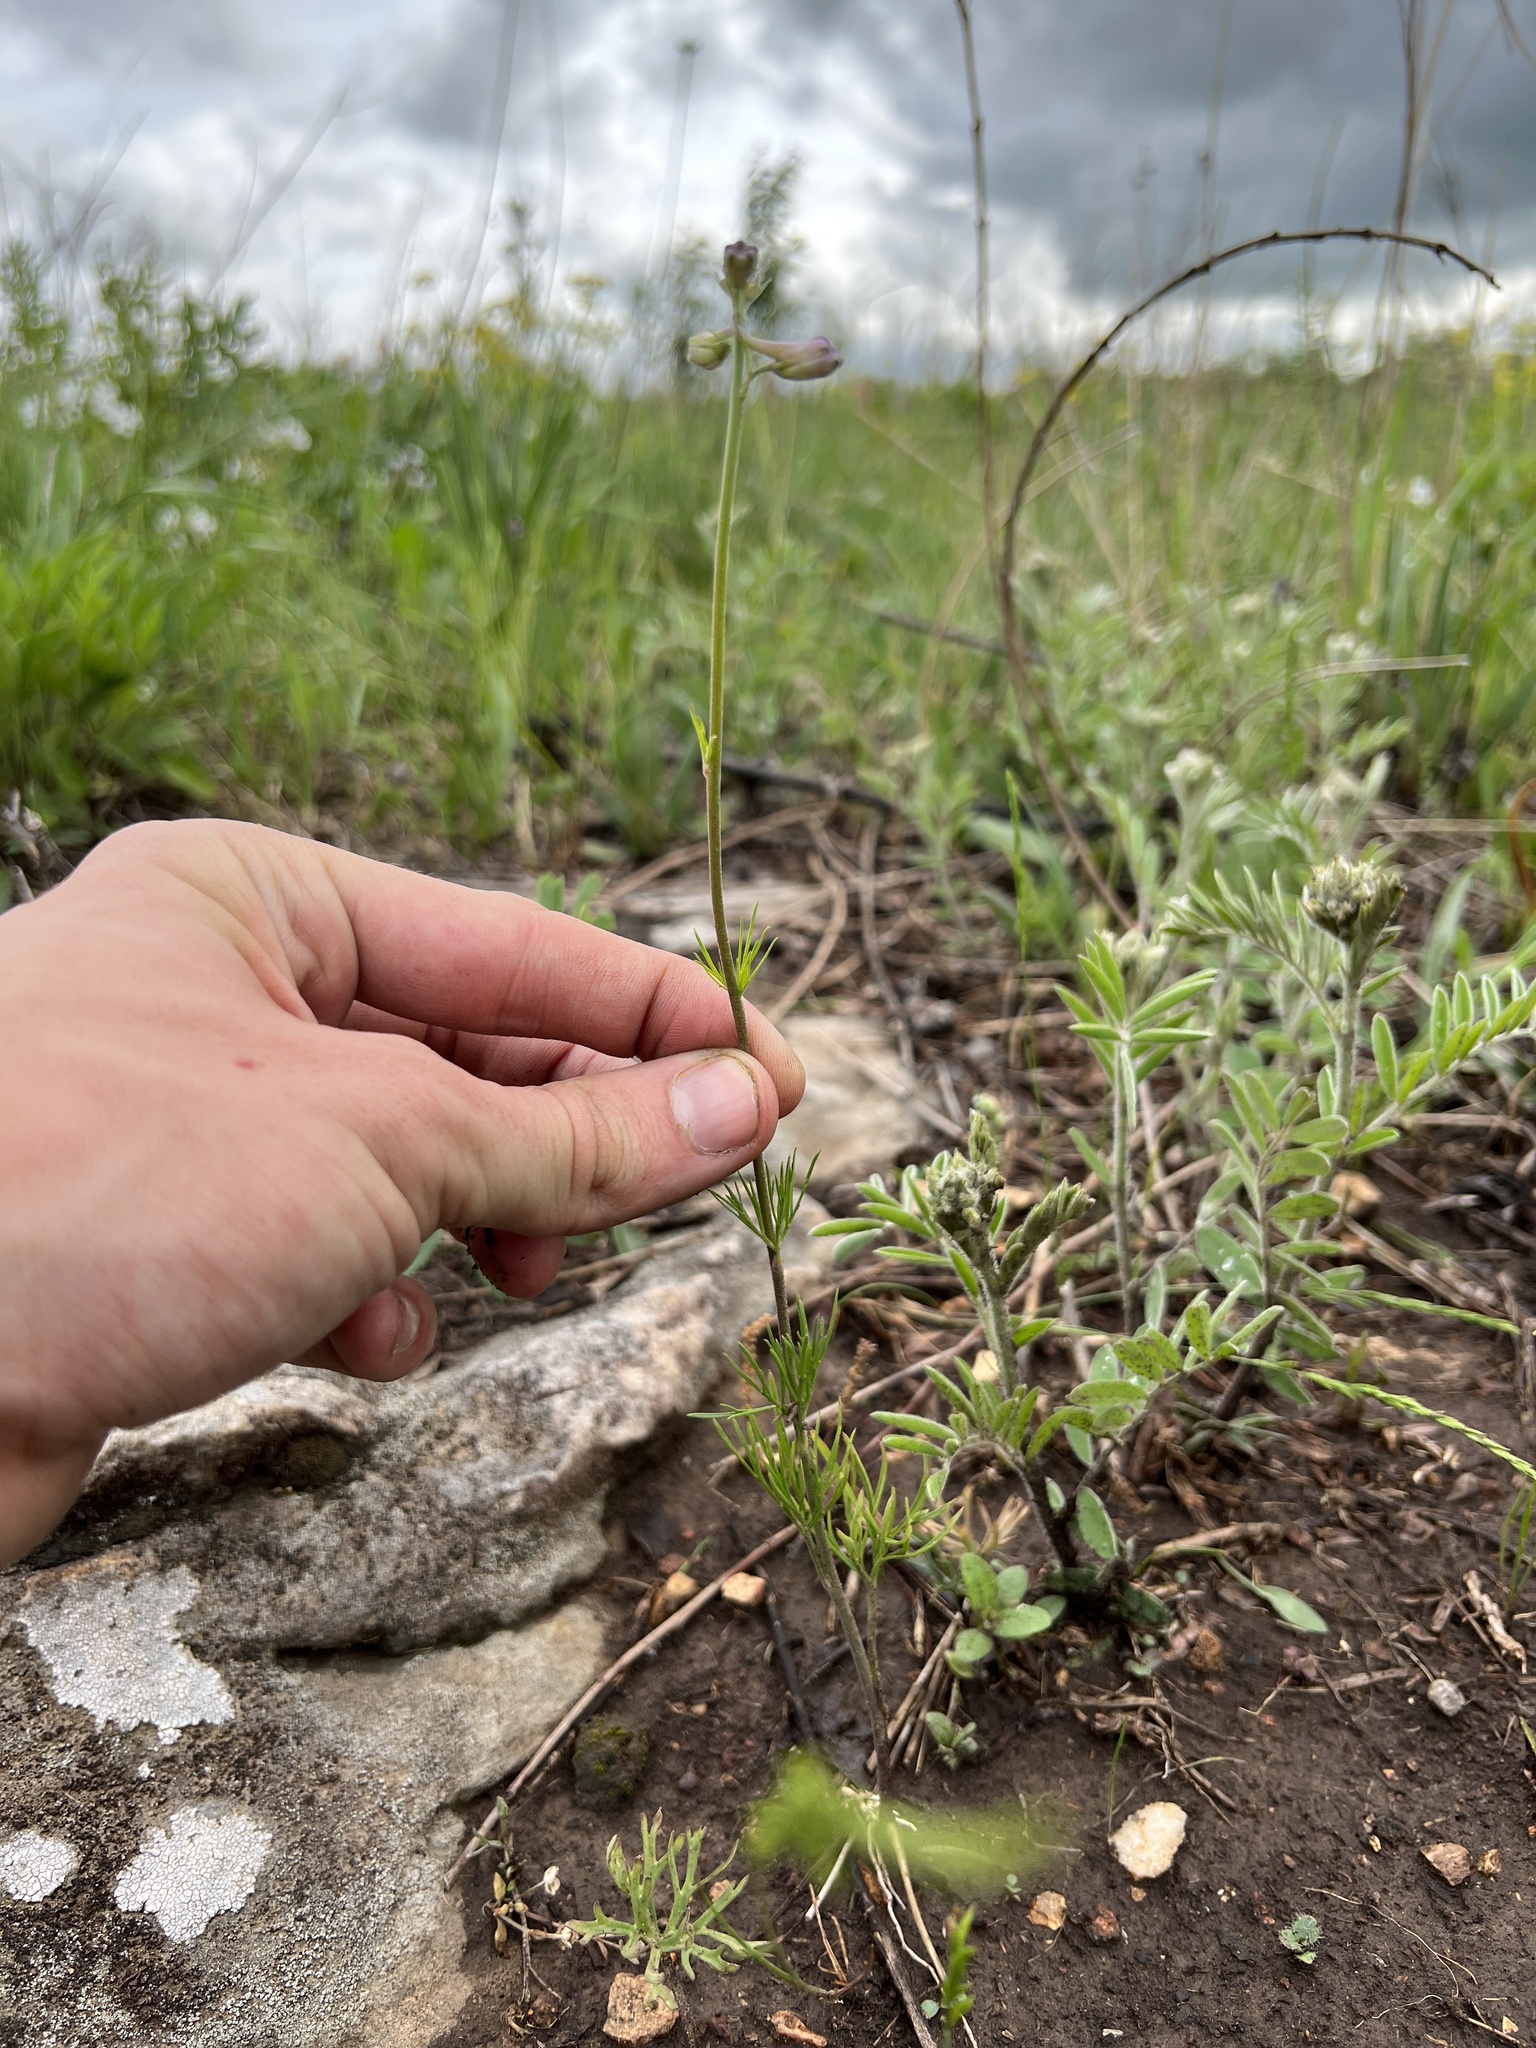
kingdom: Plantae
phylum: Tracheophyta
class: Magnoliopsida
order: Ranunculales
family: Ranunculaceae
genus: Delphinium
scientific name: Delphinium carolinianum
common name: Carolina larkspur
